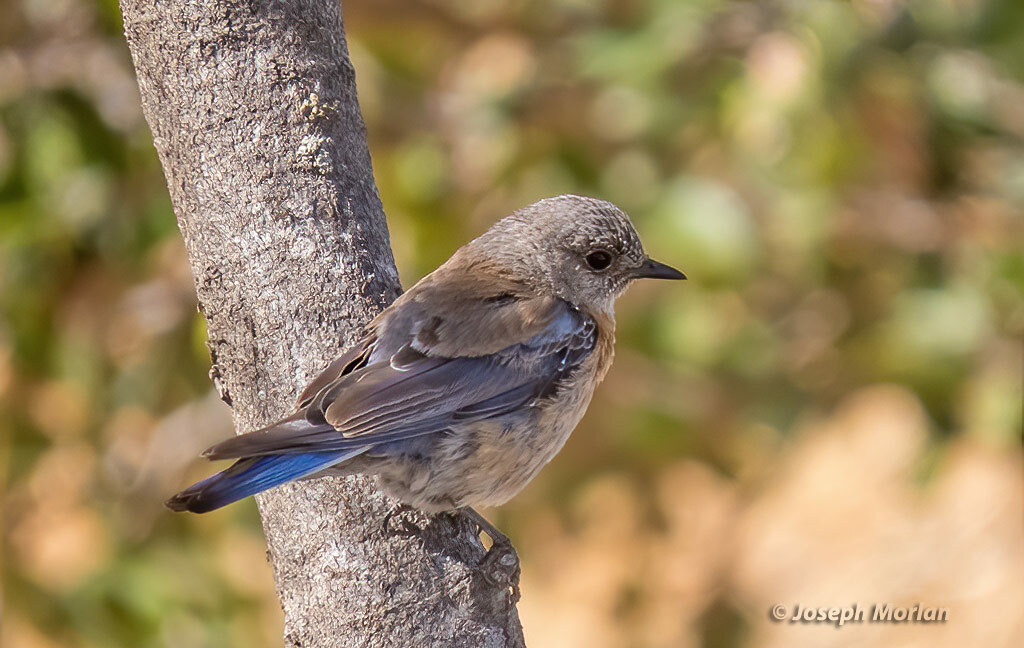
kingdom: Animalia
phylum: Chordata
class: Aves
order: Passeriformes
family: Turdidae
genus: Sialia
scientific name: Sialia mexicana
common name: Western bluebird
